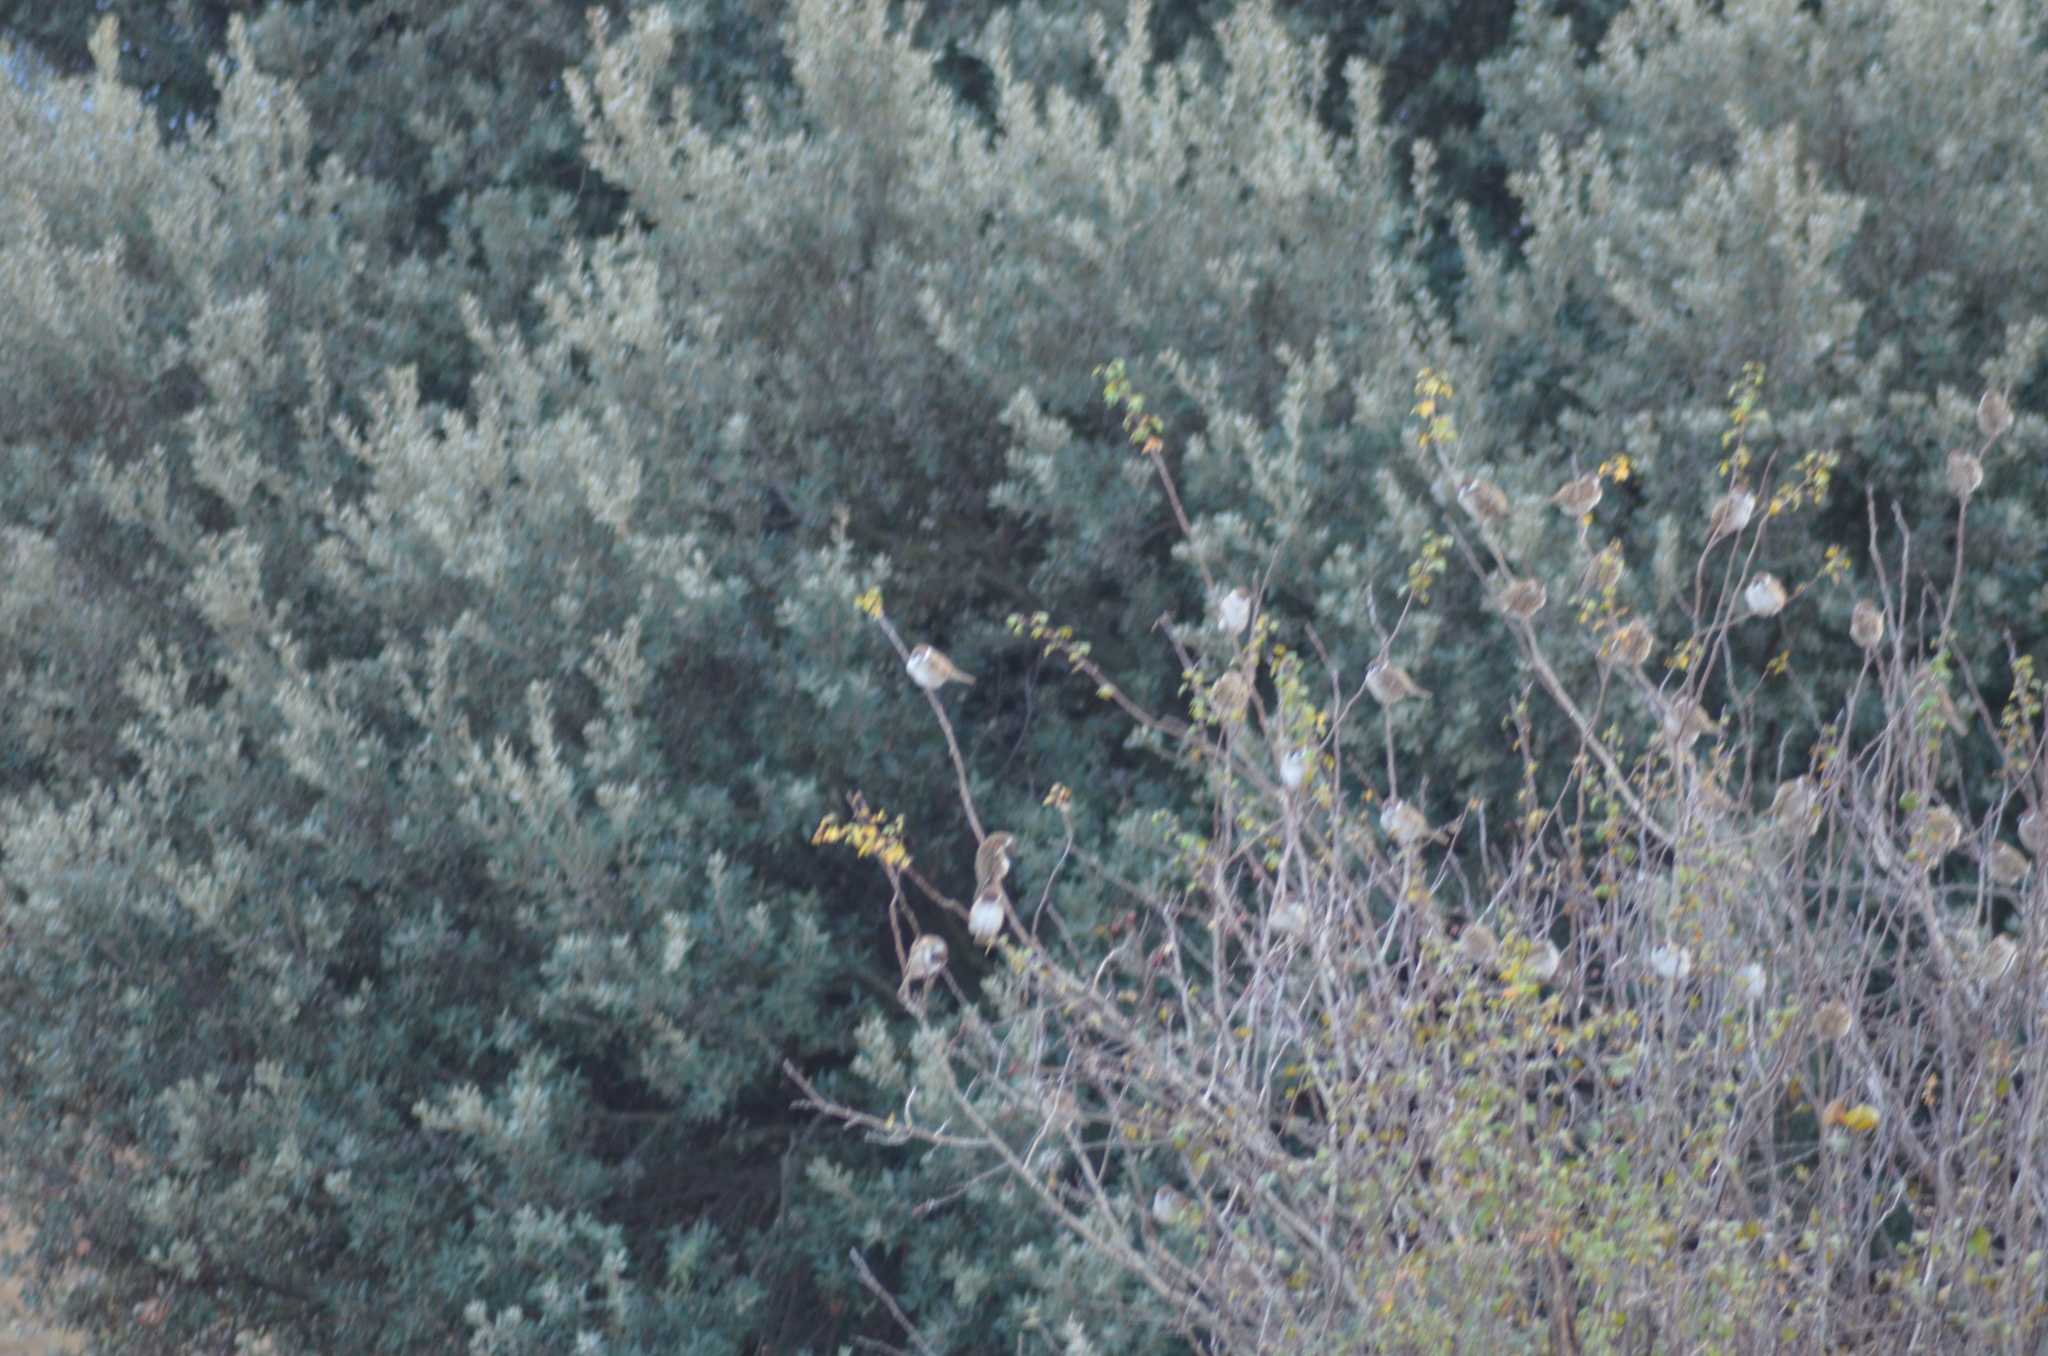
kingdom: Animalia
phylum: Chordata
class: Aves
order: Passeriformes
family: Passeridae
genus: Passer
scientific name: Passer montanus
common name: Eurasian tree sparrow
